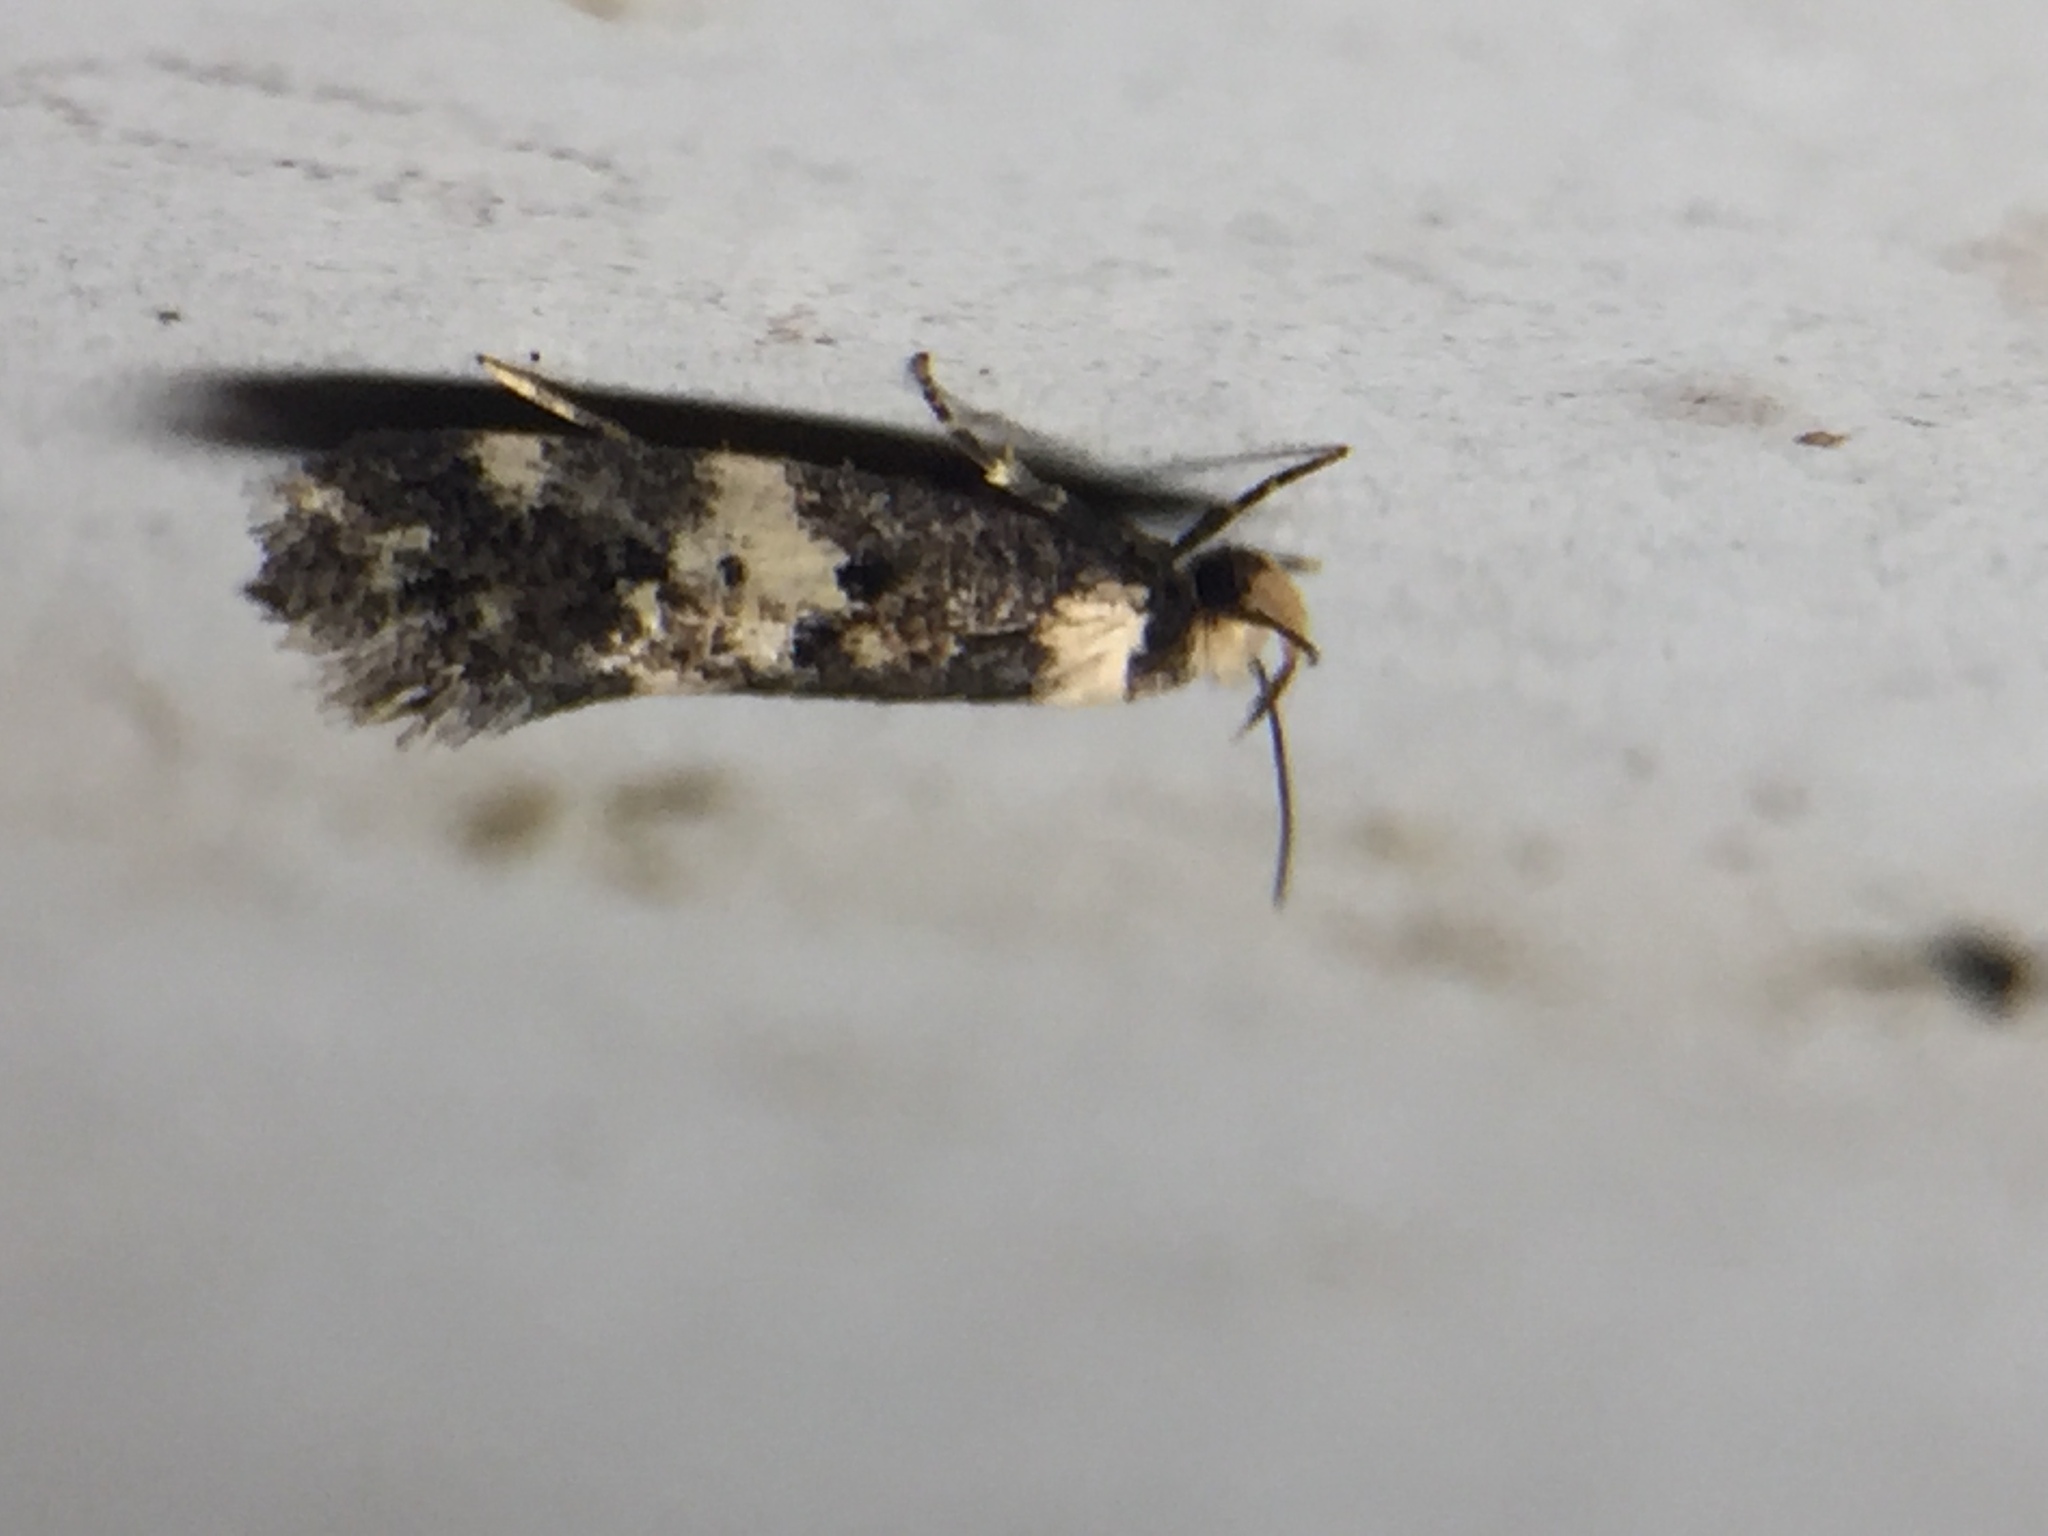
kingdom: Animalia
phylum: Arthropoda
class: Insecta
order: Lepidoptera
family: Oecophoridae
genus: Sphyrelata
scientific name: Sphyrelata amotella
